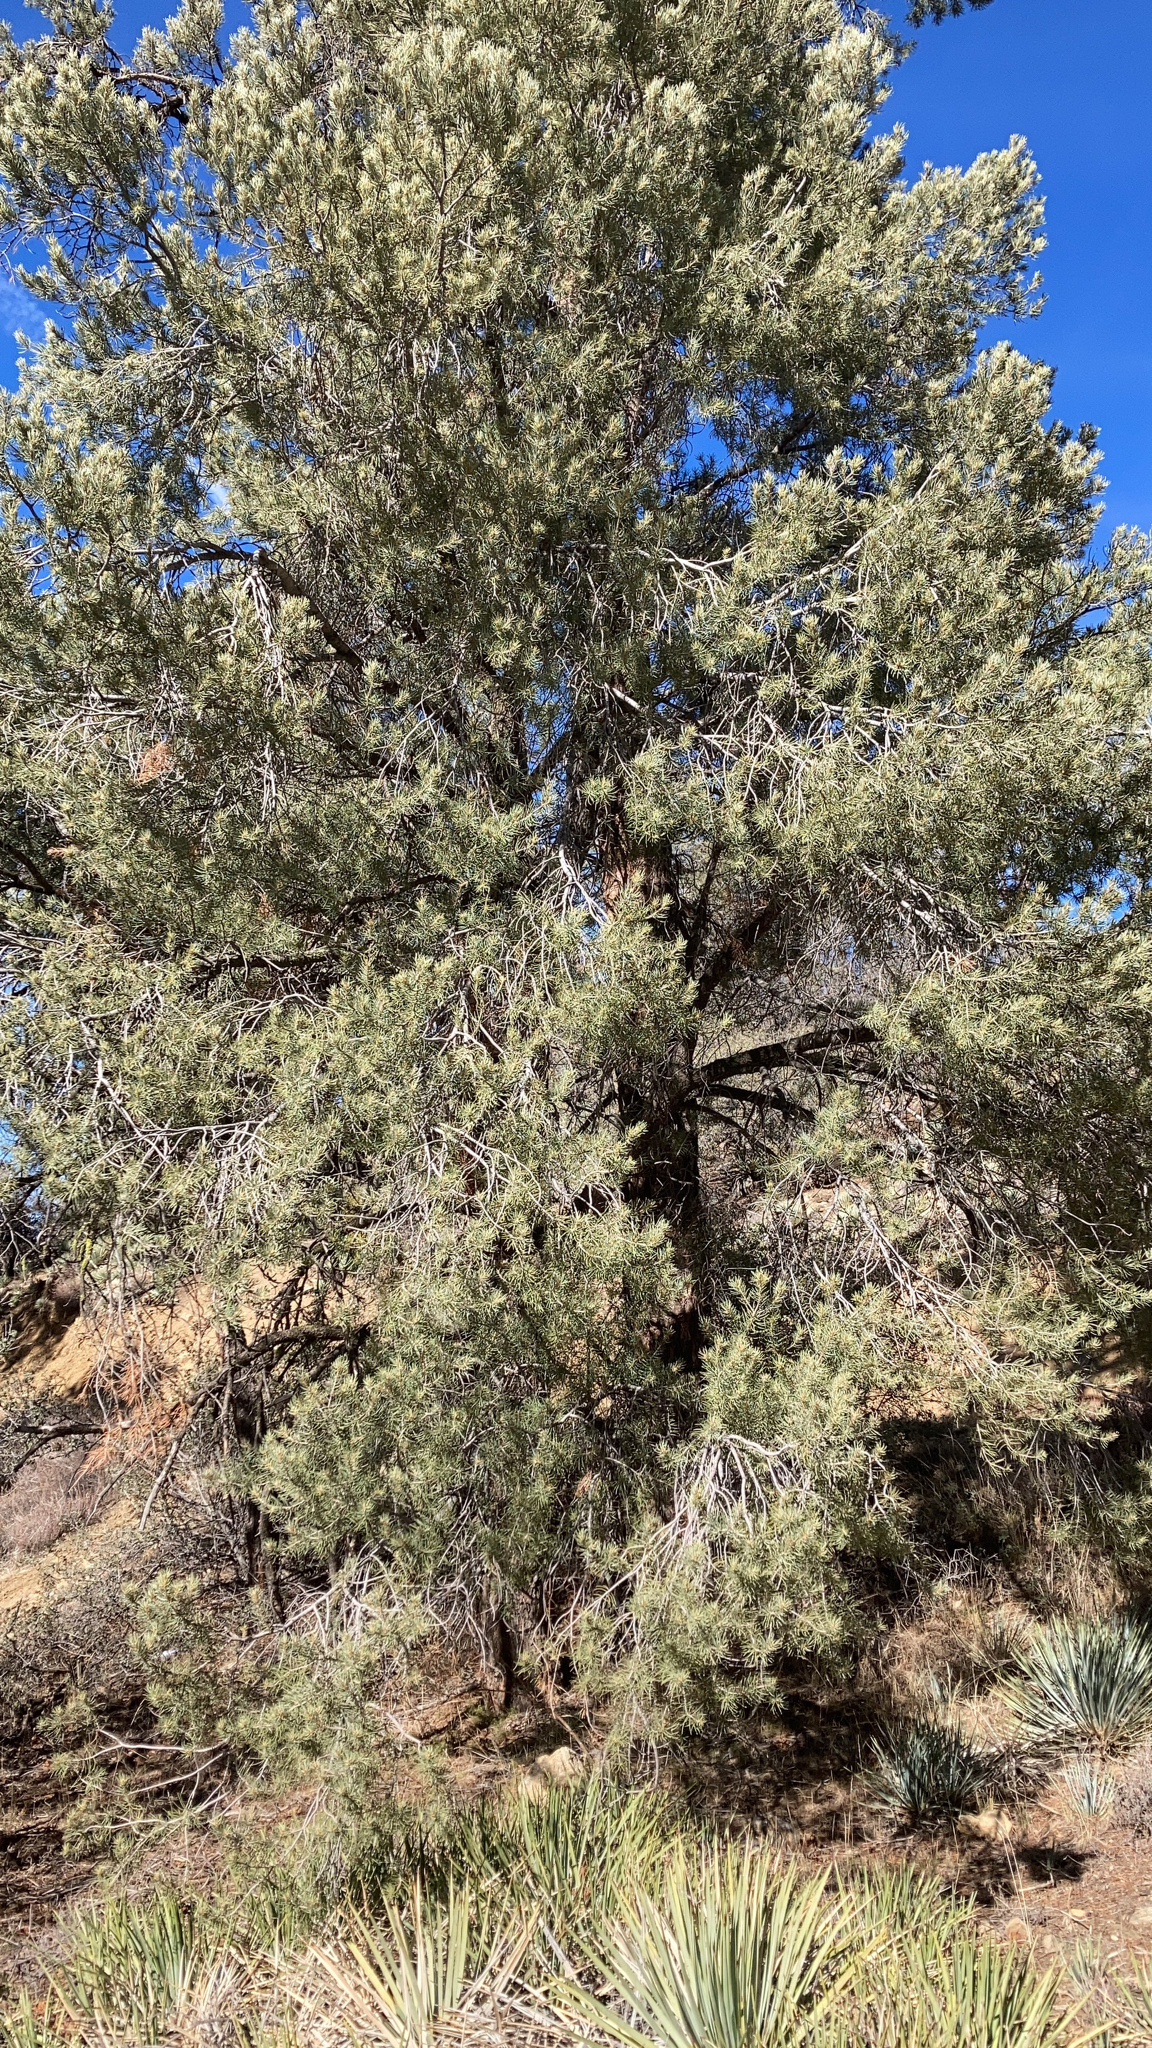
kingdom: Plantae
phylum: Tracheophyta
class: Pinopsida
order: Pinales
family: Pinaceae
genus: Pinus
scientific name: Pinus monophylla
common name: One-leaved nut pine
